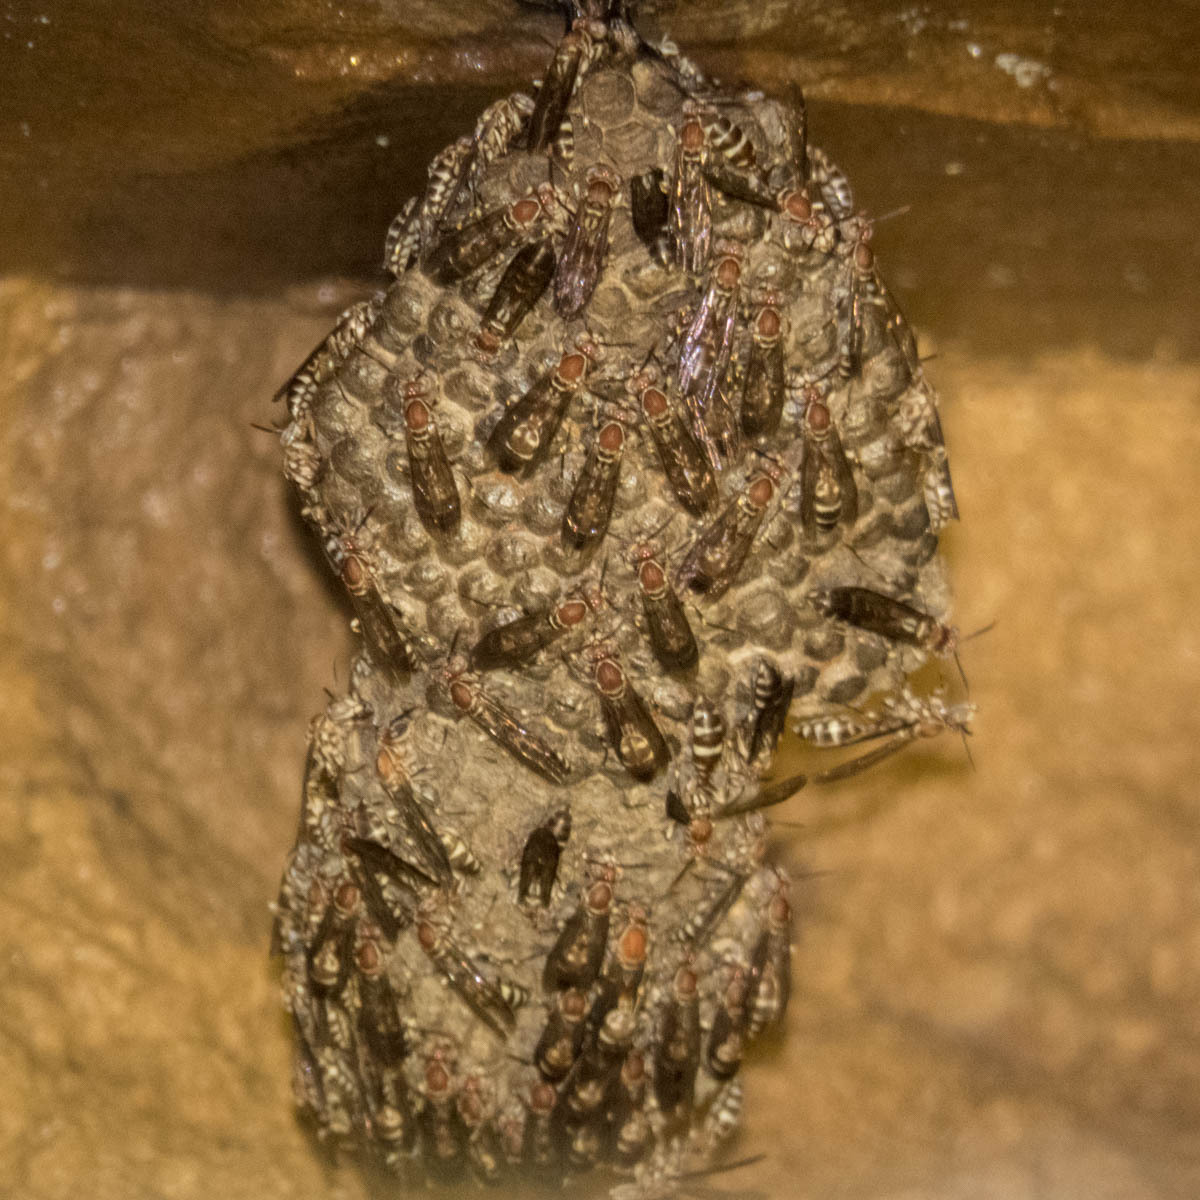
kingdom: Animalia
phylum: Arthropoda
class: Insecta
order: Hymenoptera
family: Vespidae
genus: Parapolybia
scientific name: Parapolybia nodosa
